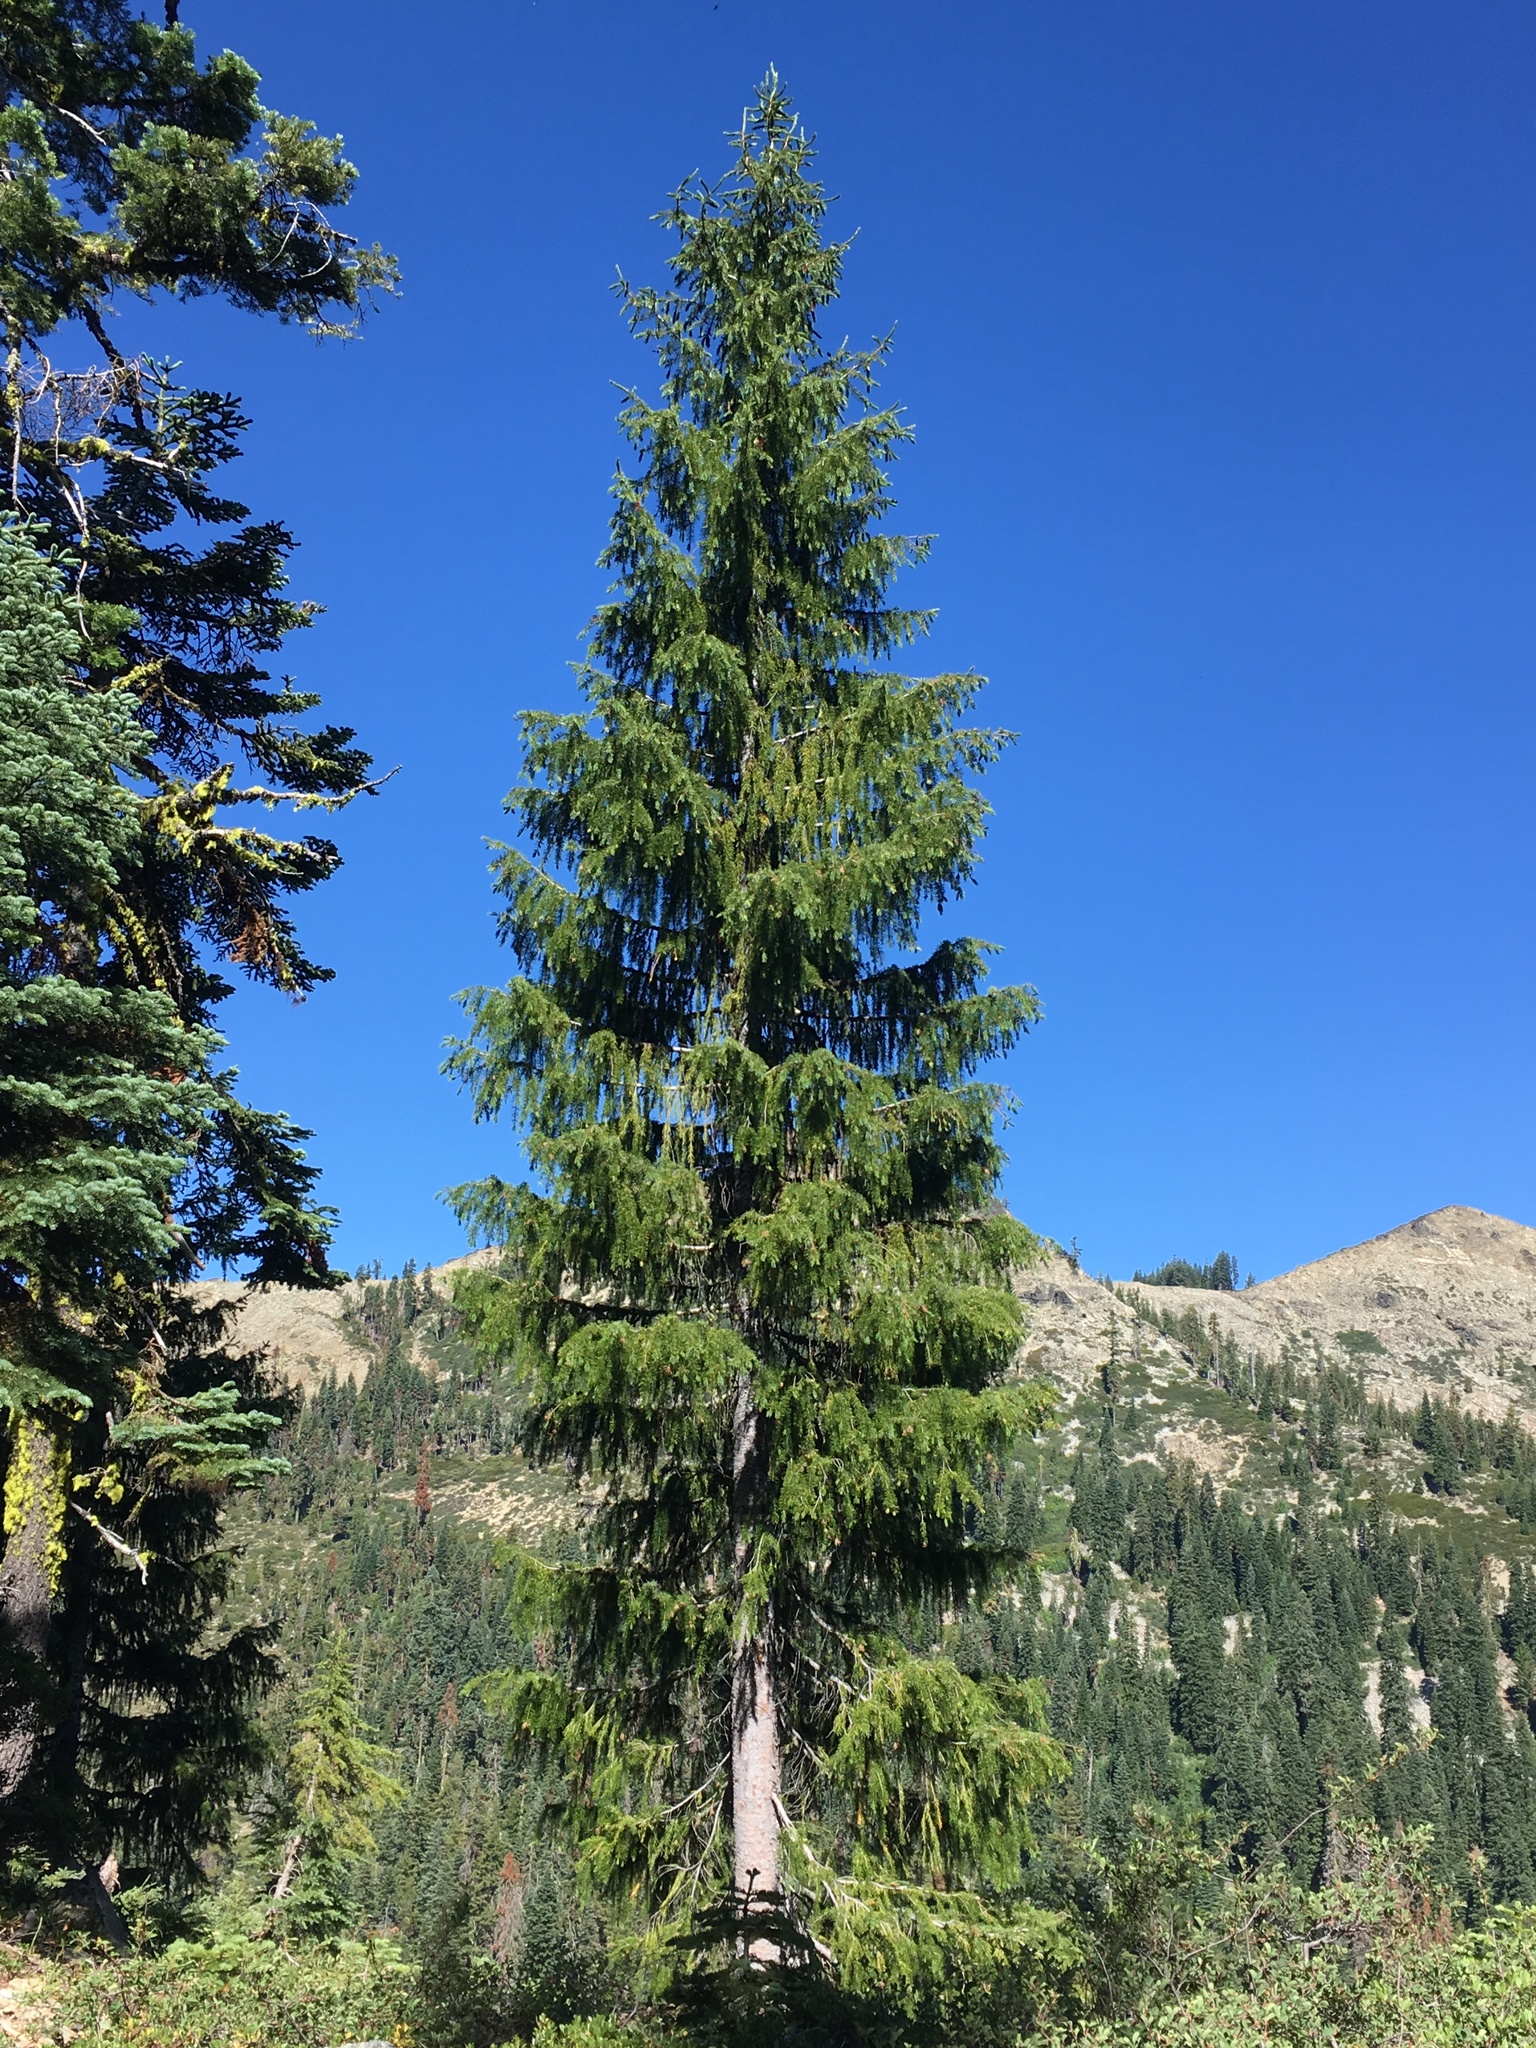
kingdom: Plantae
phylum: Tracheophyta
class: Pinopsida
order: Pinales
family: Pinaceae
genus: Picea
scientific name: Picea breweriana
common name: Brewer's spruce
